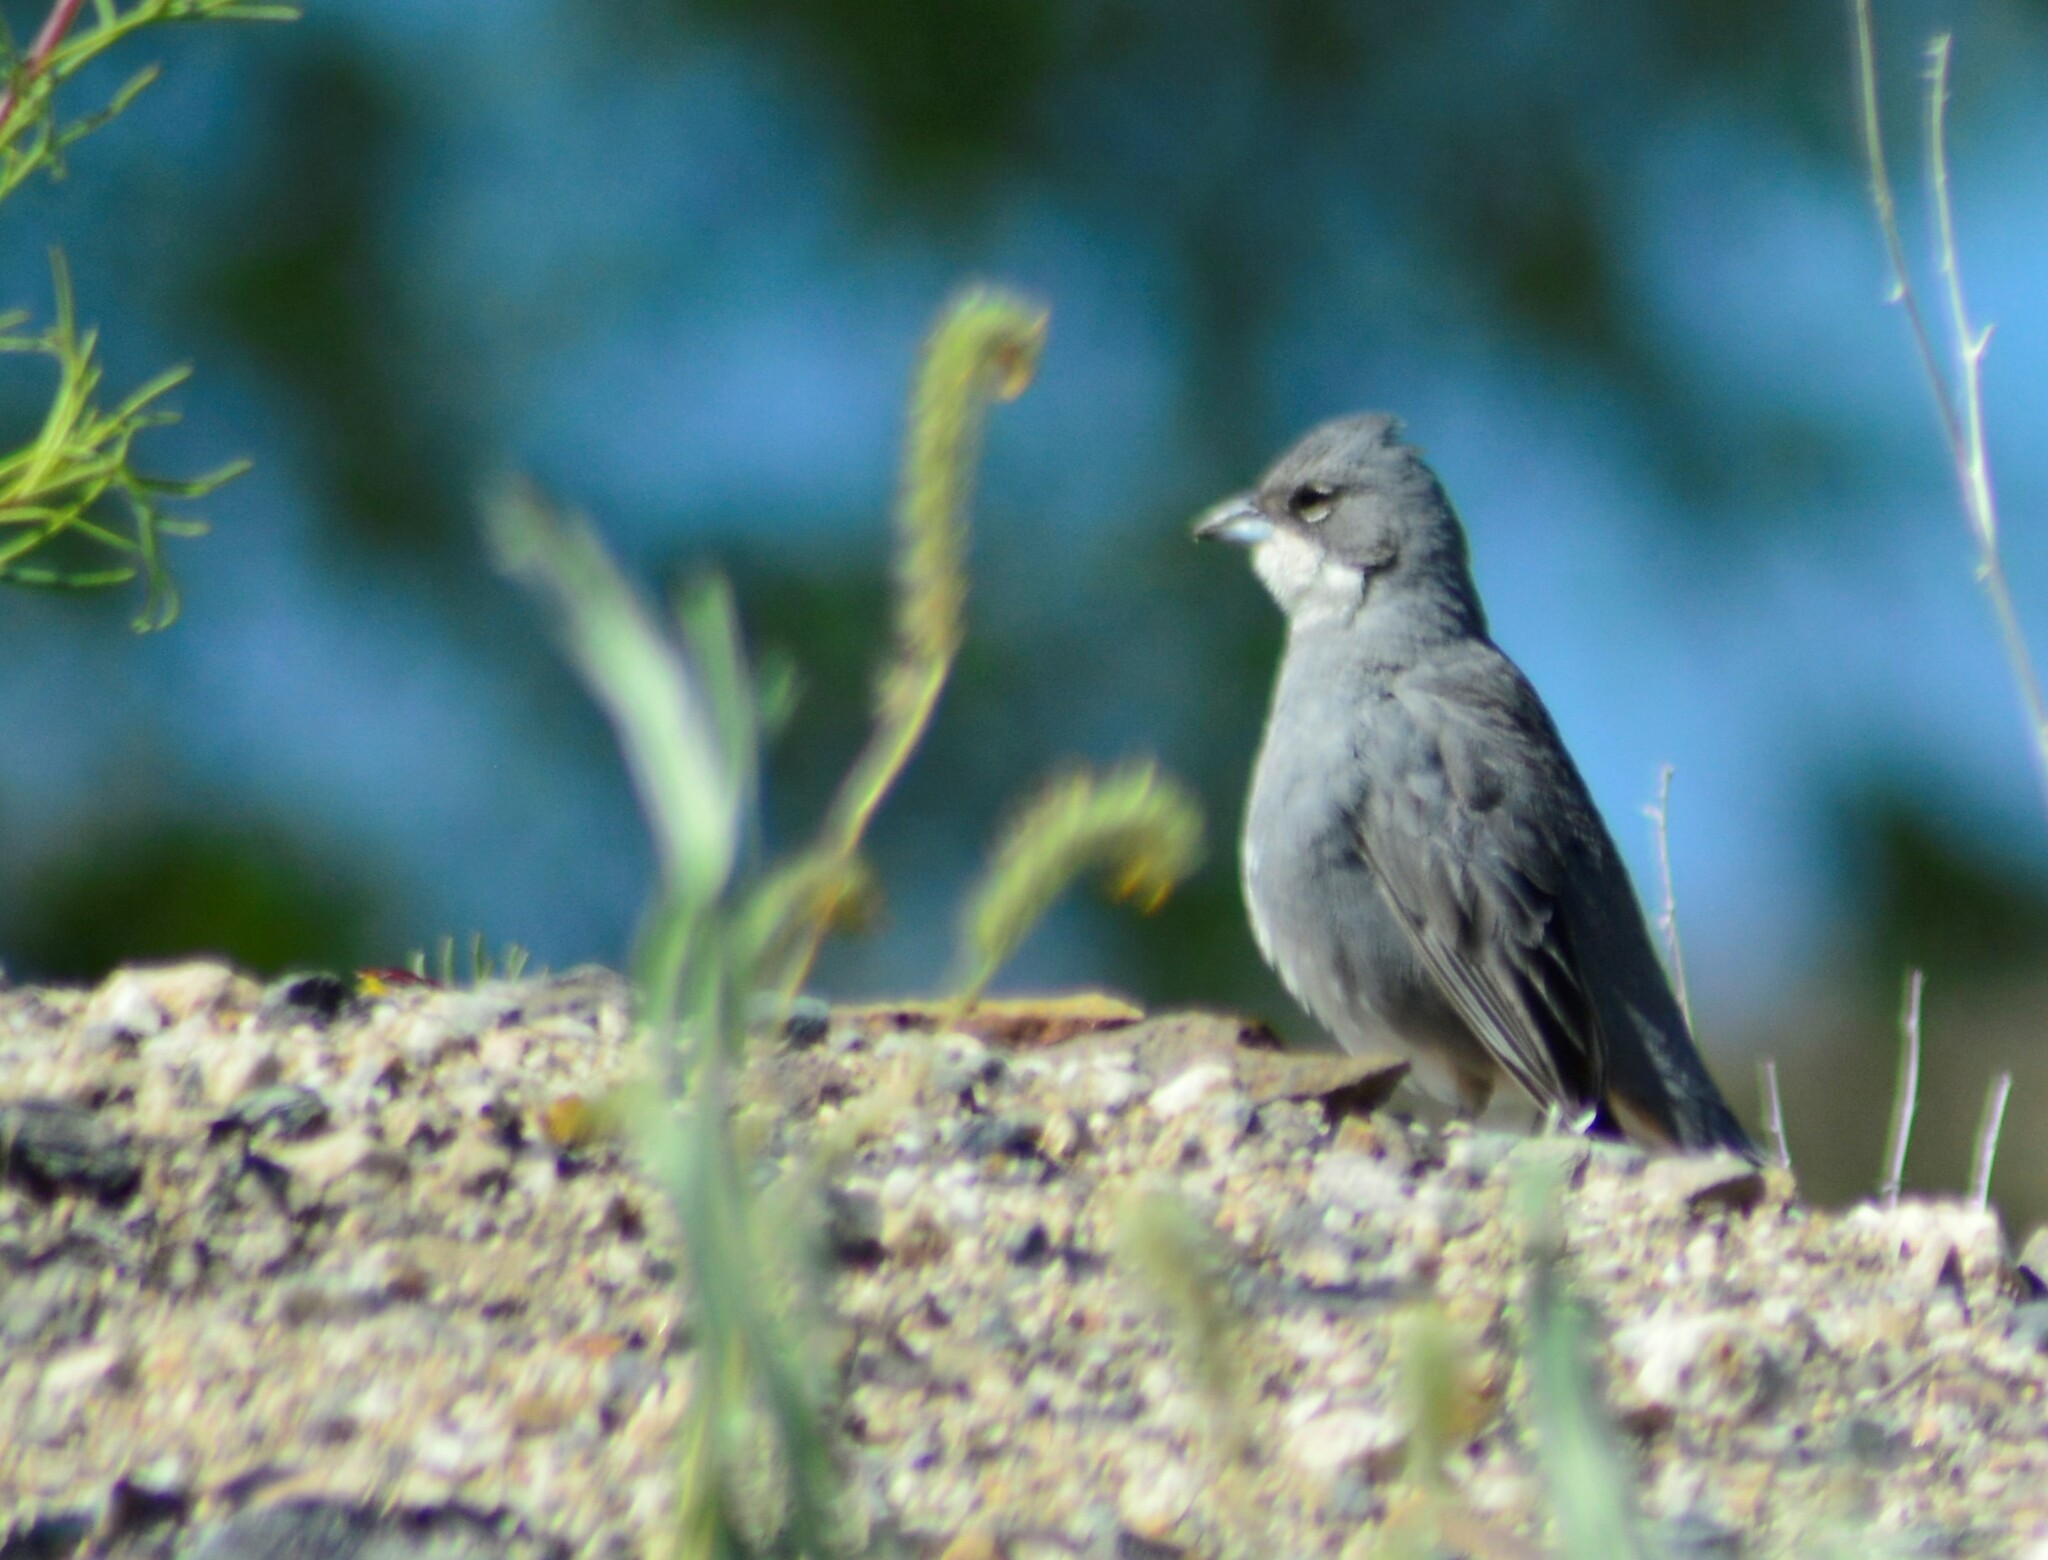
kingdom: Animalia
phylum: Chordata
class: Aves
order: Passeriformes
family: Thraupidae
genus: Diuca
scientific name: Diuca diuca
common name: Common diuca finch
